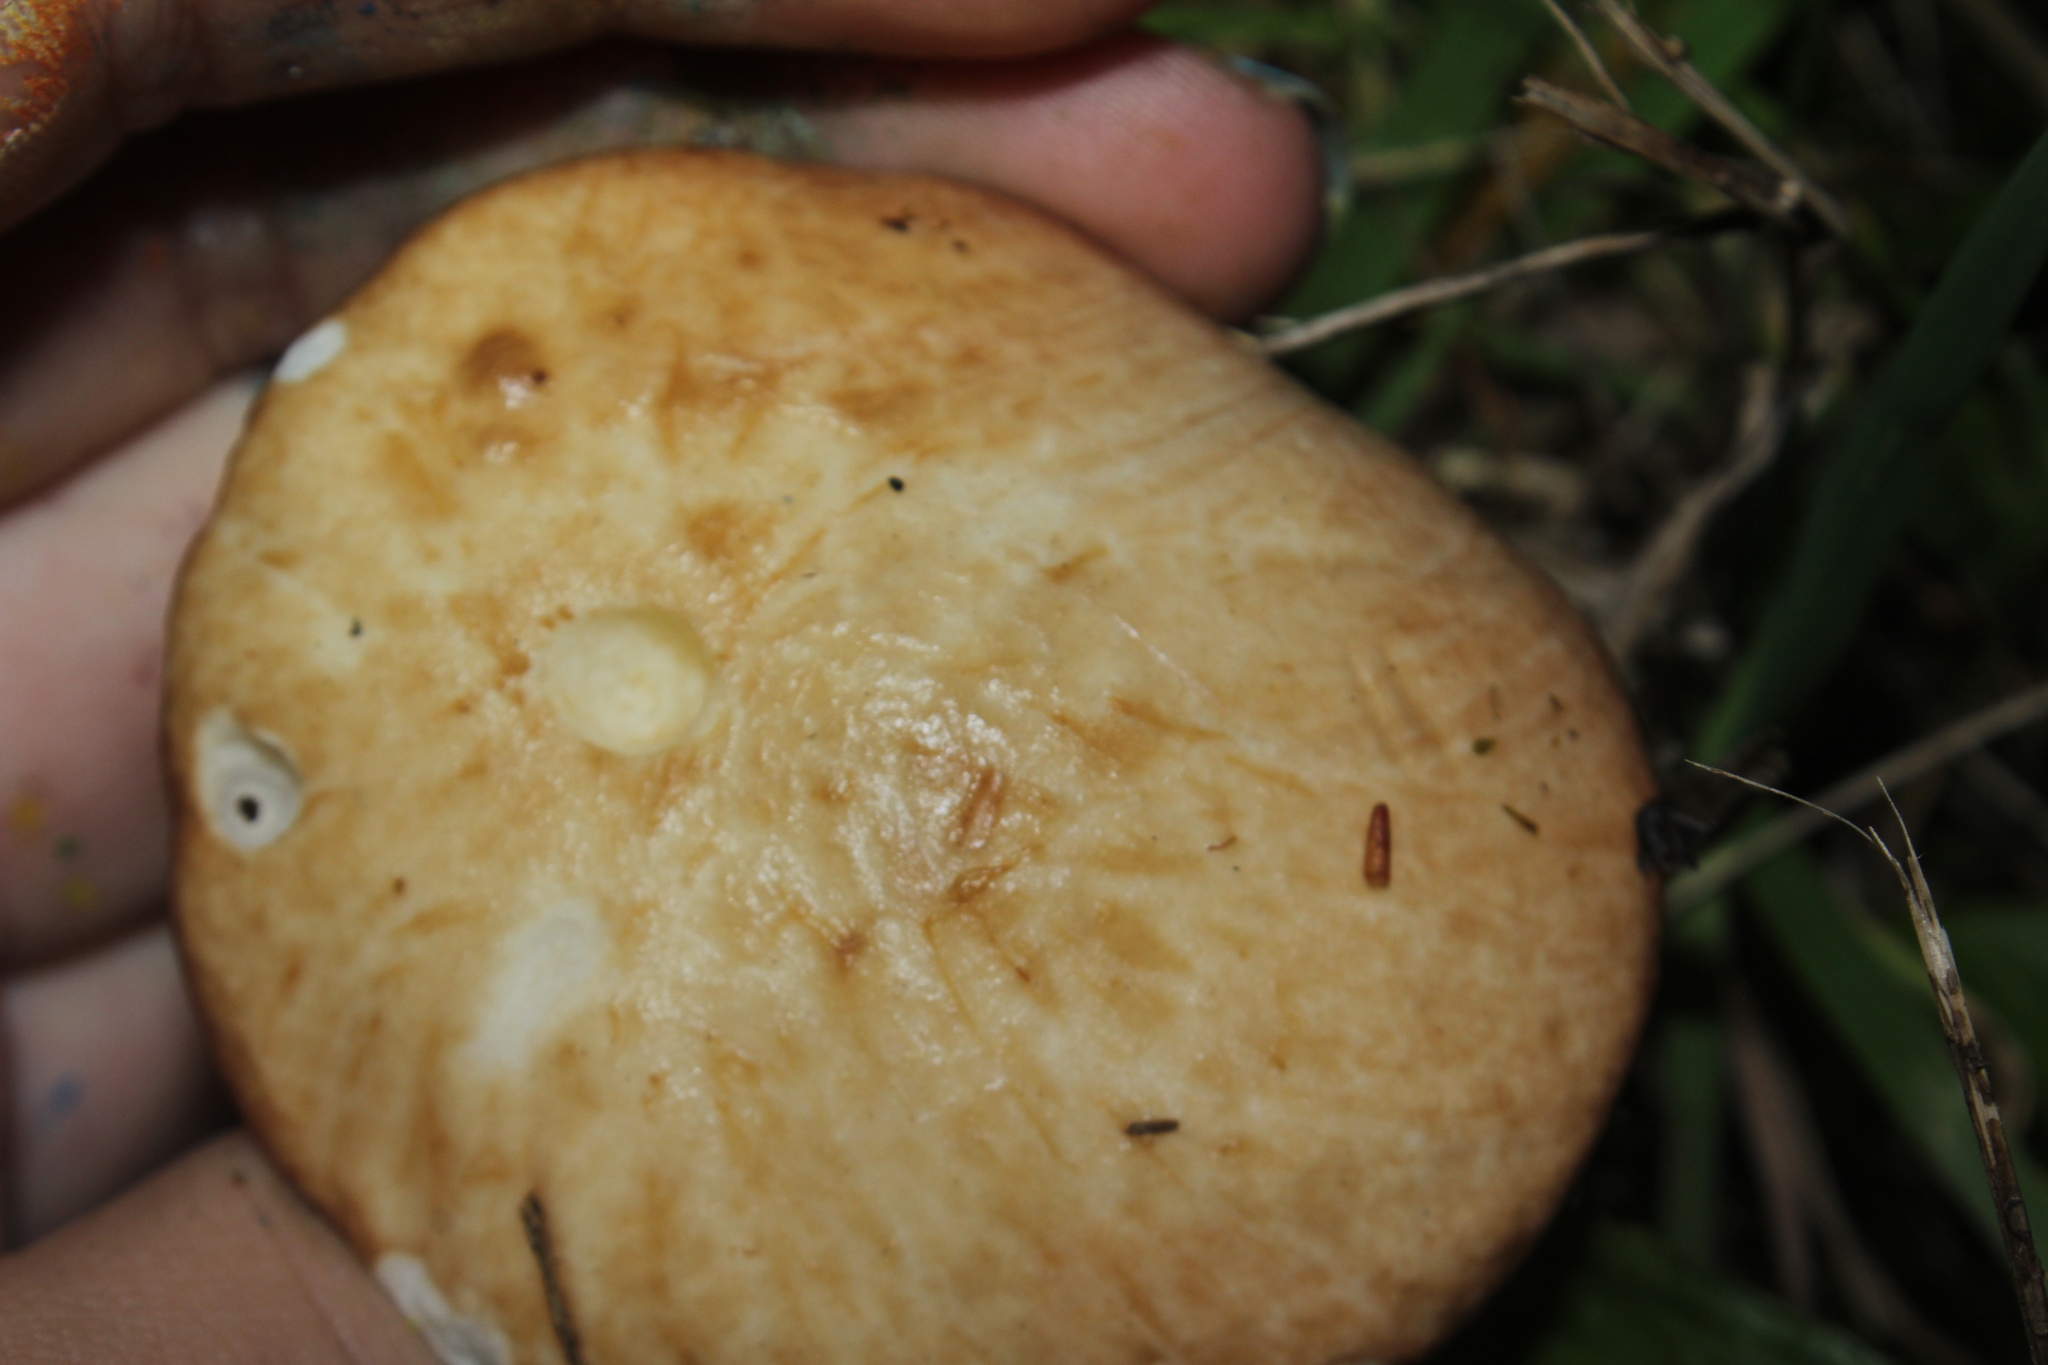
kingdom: Fungi
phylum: Basidiomycota
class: Agaricomycetes
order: Boletales
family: Suillaceae
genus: Fuscoboletinus
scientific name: Fuscoboletinus weaverae
